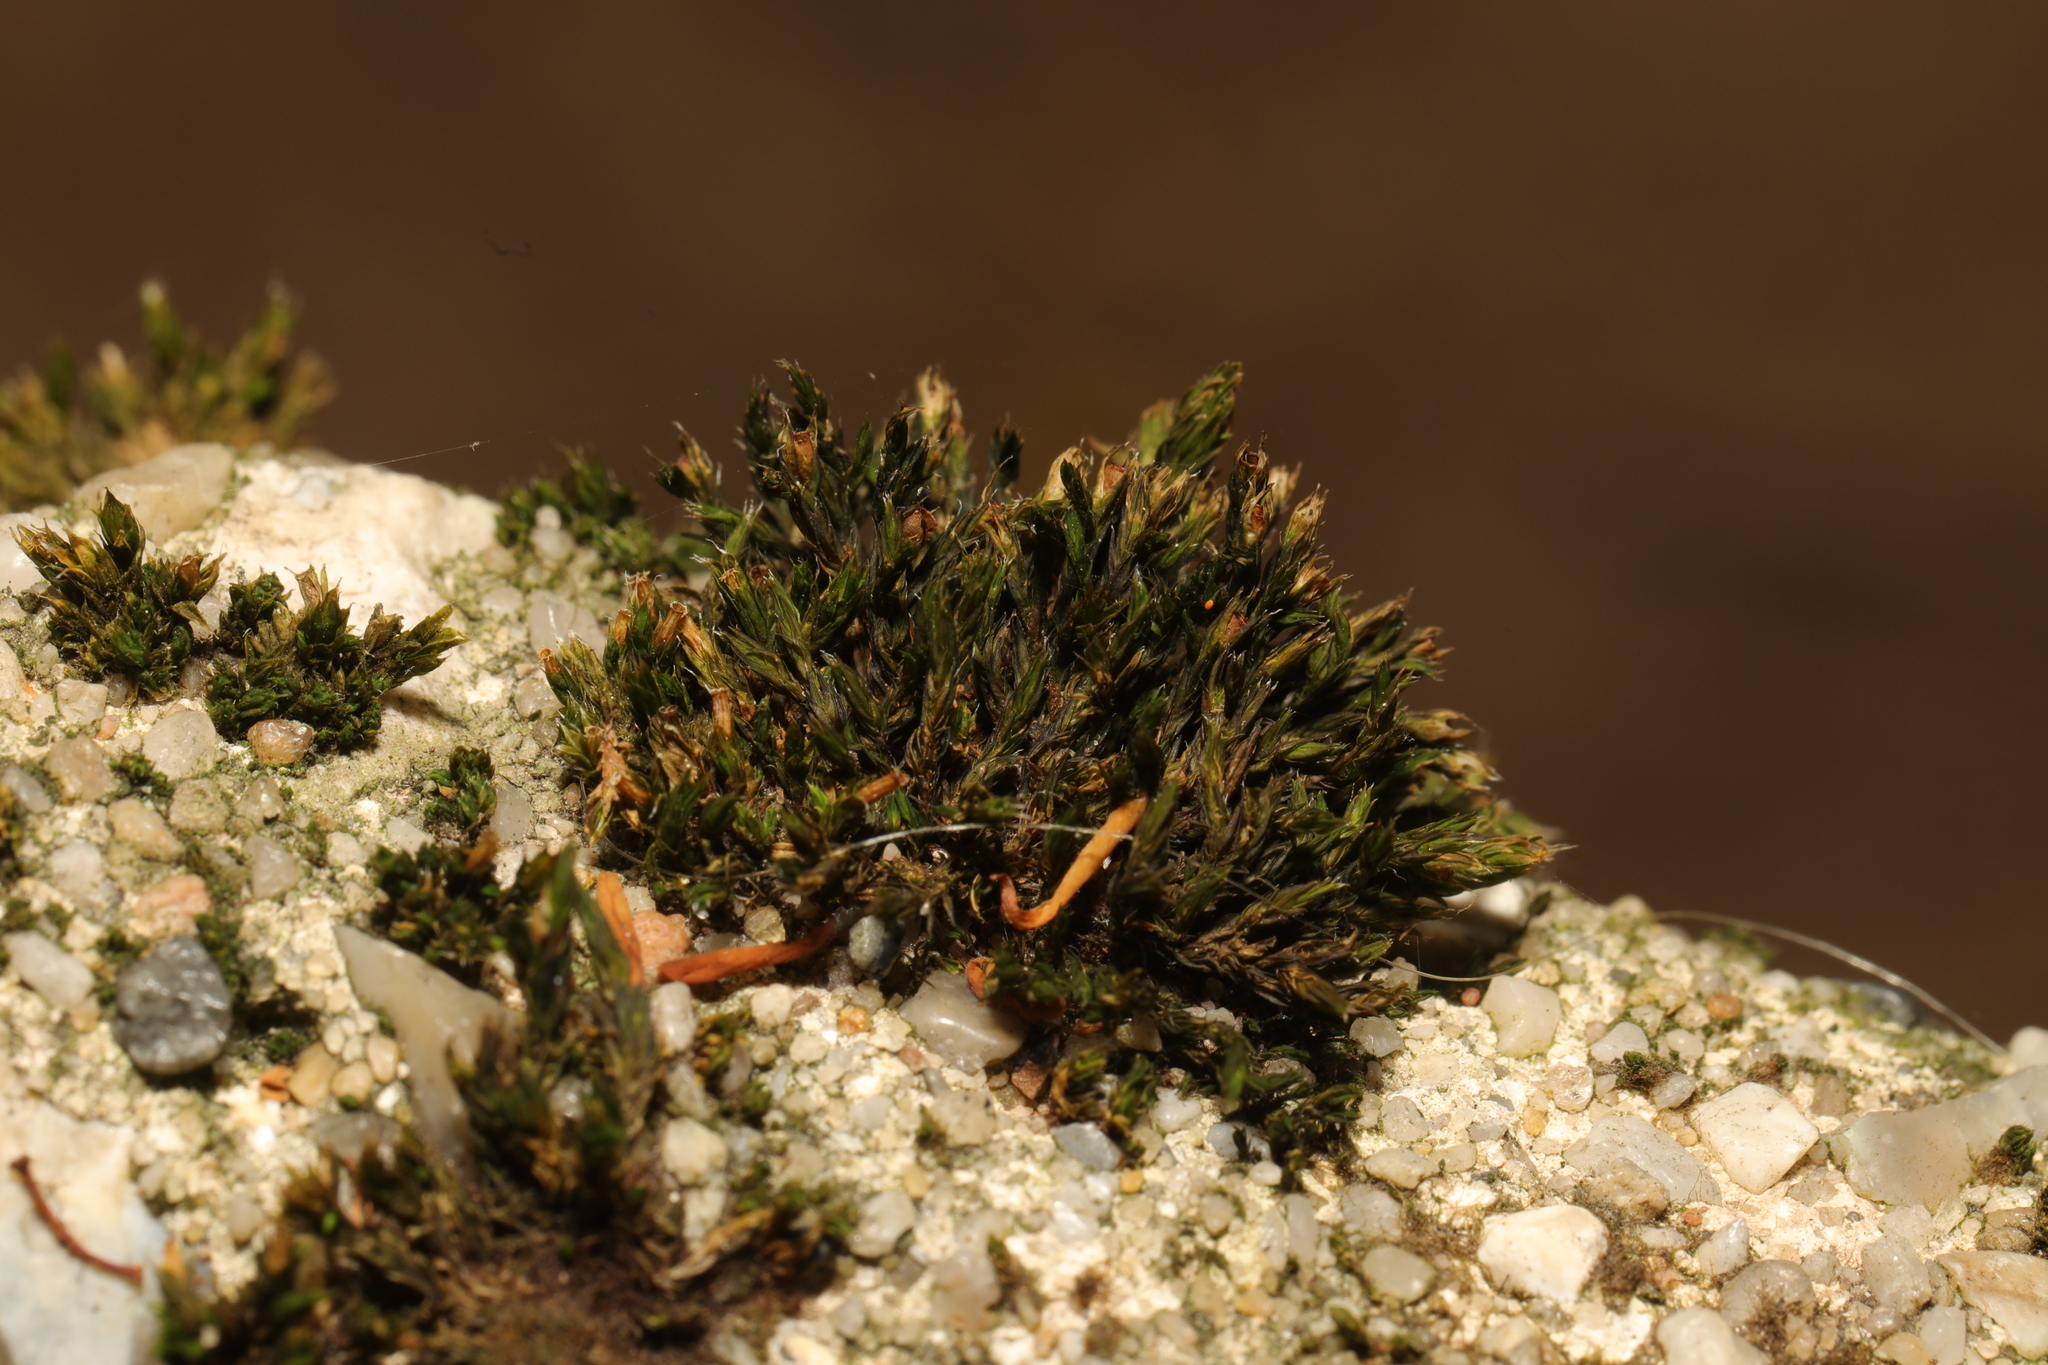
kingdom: Plantae
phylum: Bryophyta
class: Bryopsida
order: Grimmiales
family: Grimmiaceae
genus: Schistidium
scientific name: Schistidium crassipilum
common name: Thickpoint bloom moss
